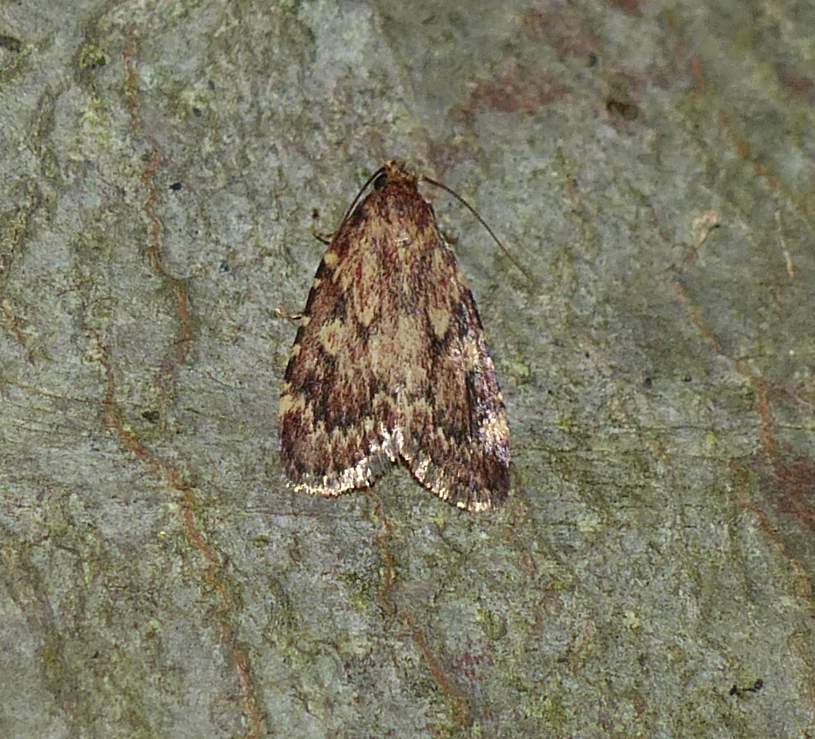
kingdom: Animalia
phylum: Arthropoda
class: Insecta
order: Lepidoptera
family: Pyralidae
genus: Aglossa
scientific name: Aglossa cuprina
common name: Grease moth
